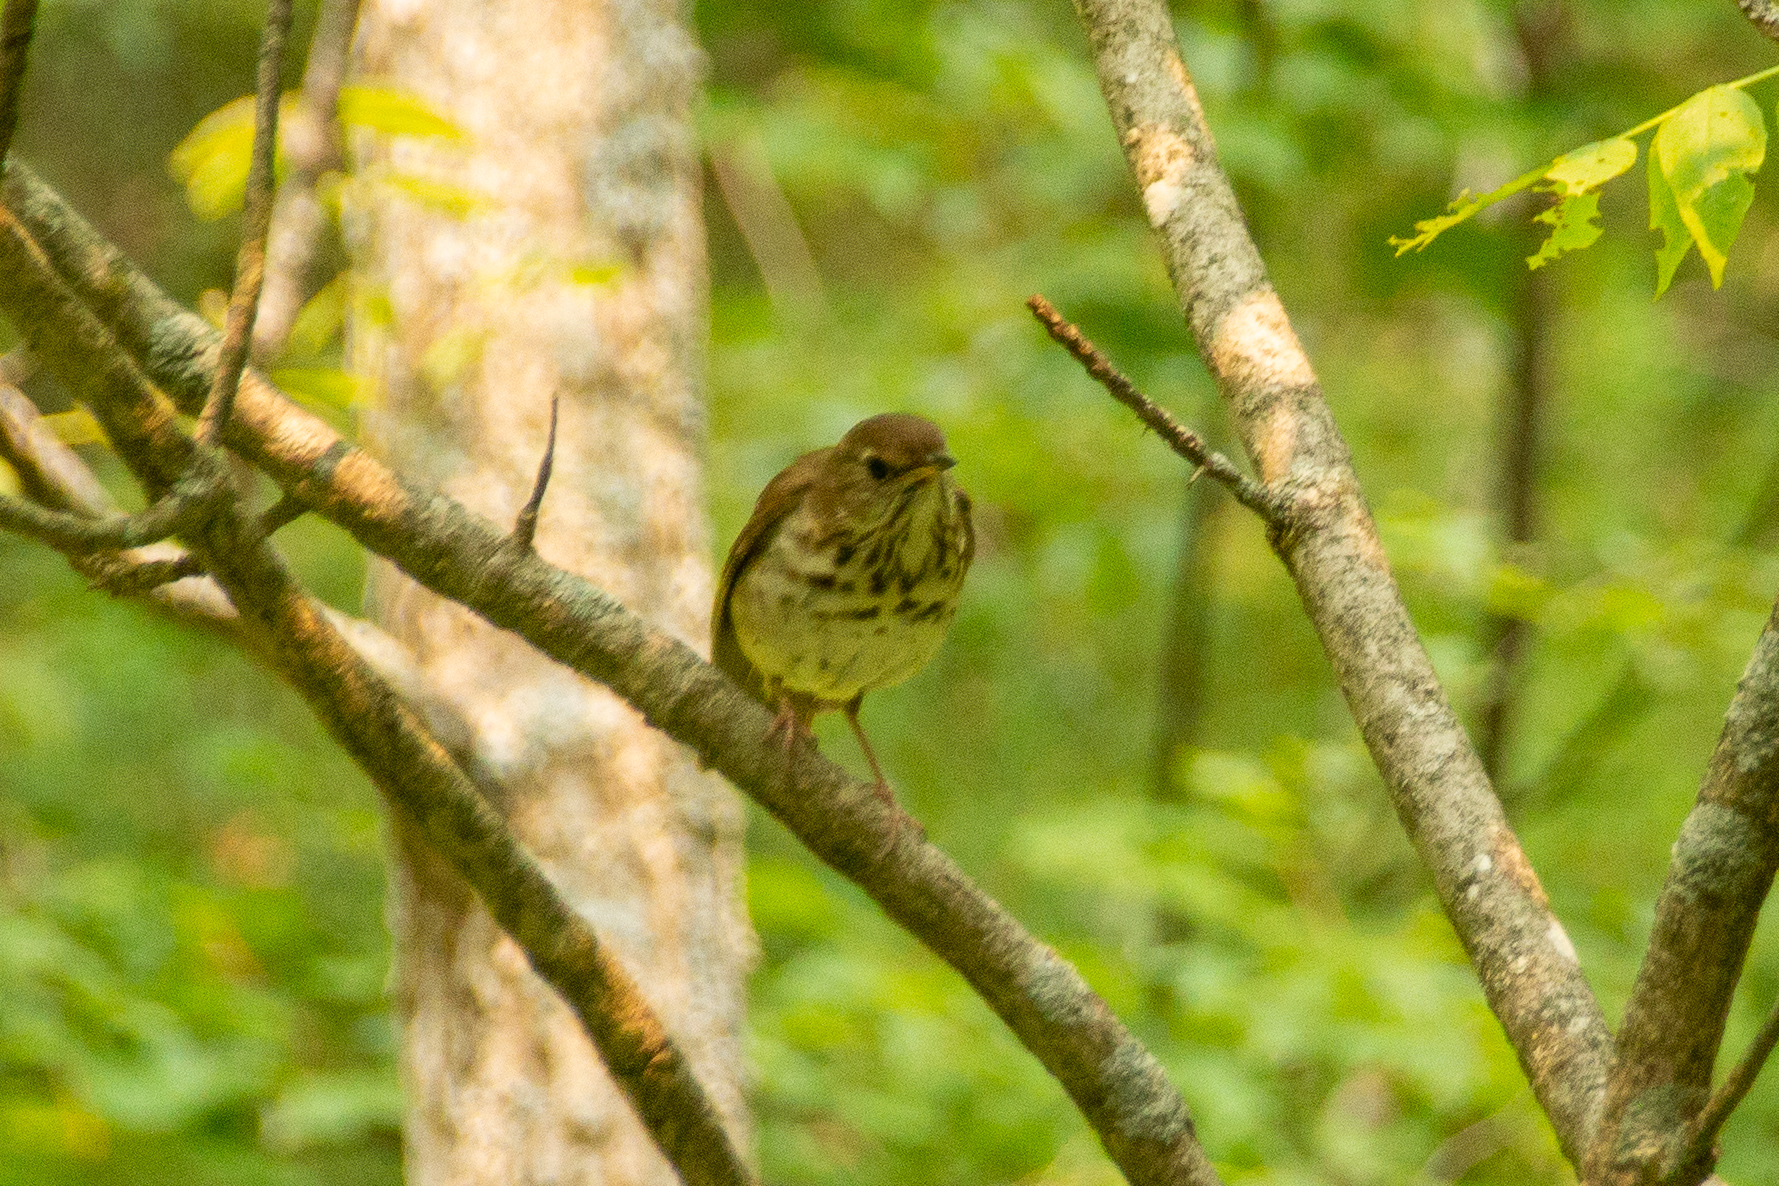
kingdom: Animalia
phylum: Chordata
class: Aves
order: Passeriformes
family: Turdidae
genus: Catharus
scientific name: Catharus guttatus
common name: Hermit thrush
